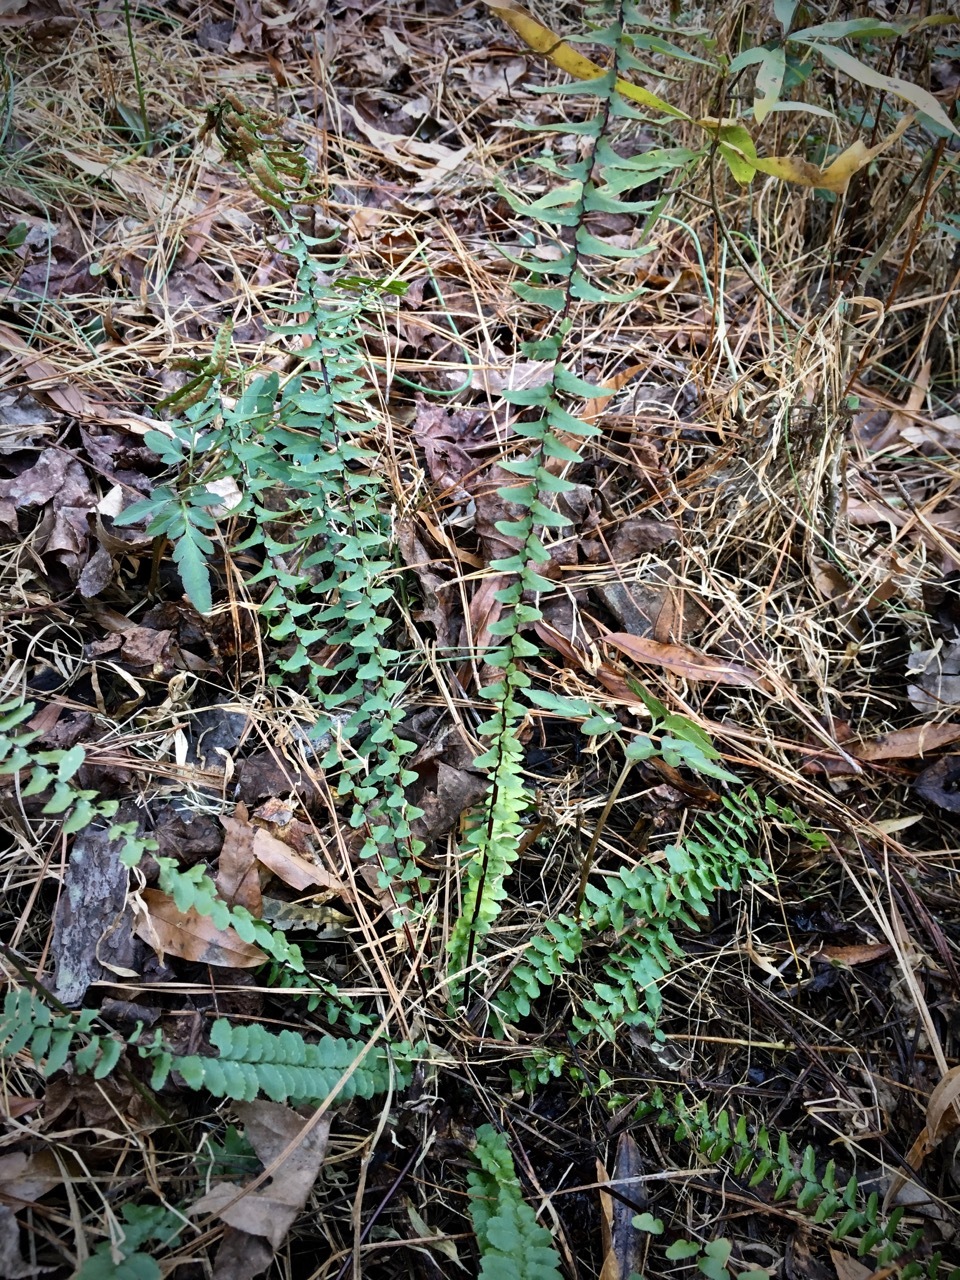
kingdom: Plantae
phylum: Tracheophyta
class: Polypodiopsida
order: Polypodiales
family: Aspleniaceae
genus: Asplenium
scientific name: Asplenium platyneuron
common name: Ebony spleenwort
